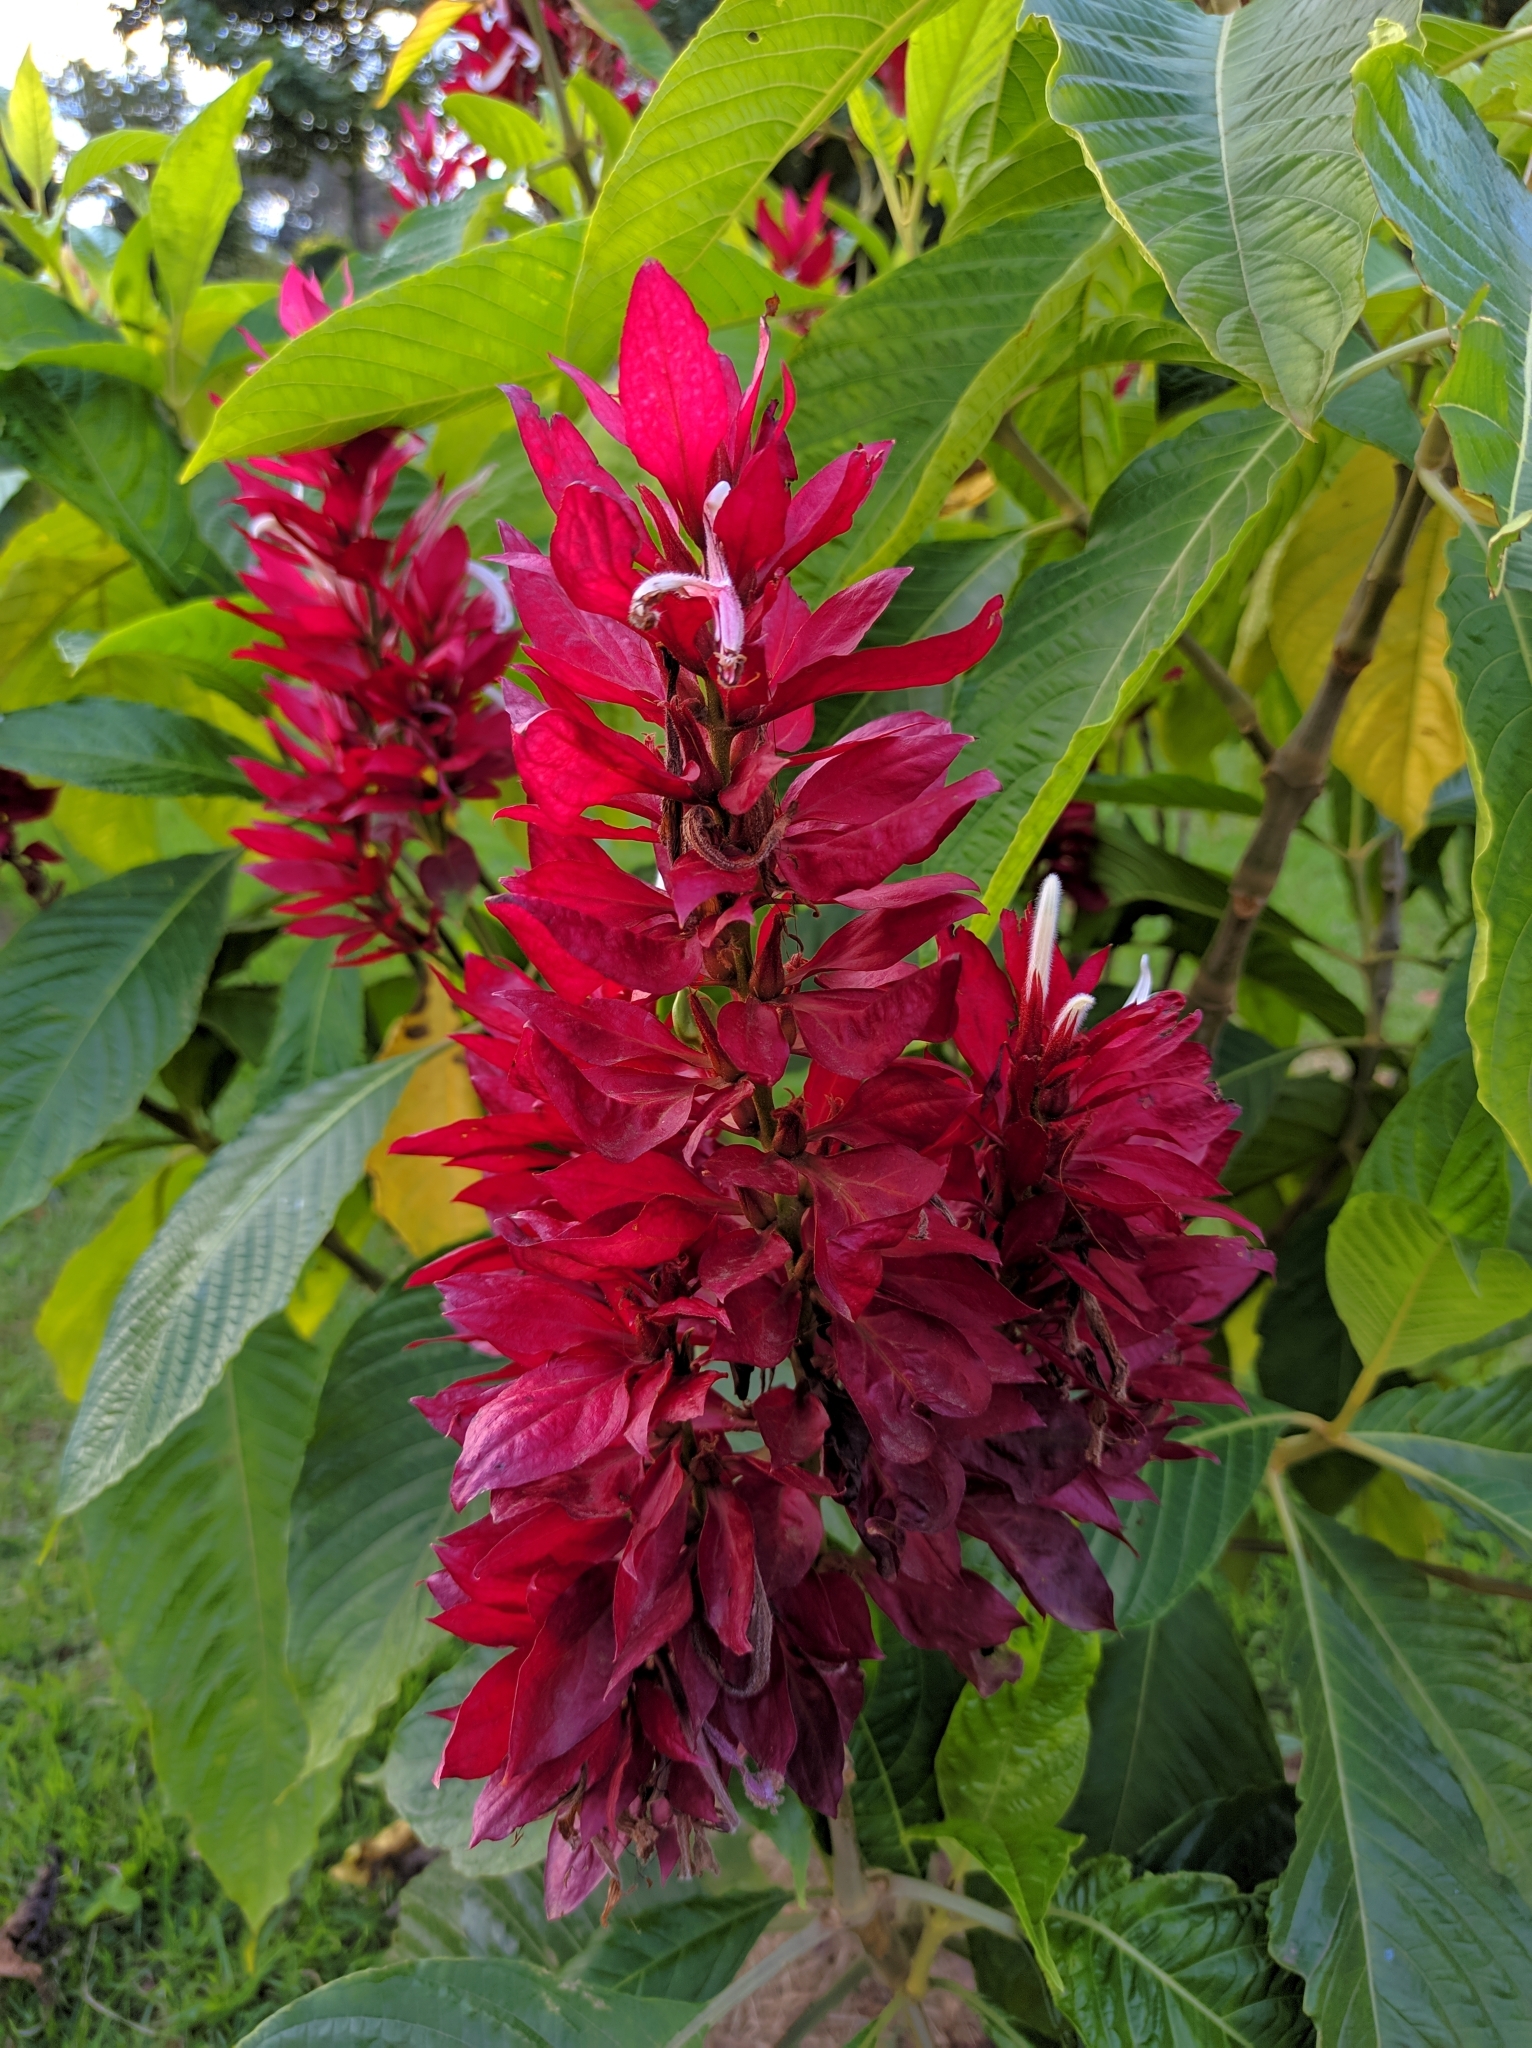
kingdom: Plantae
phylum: Tracheophyta
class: Magnoliopsida
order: Lamiales
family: Acanthaceae
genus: Megaskepasma
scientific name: Megaskepasma erythrochlamys
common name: Brazilian red-cloak
